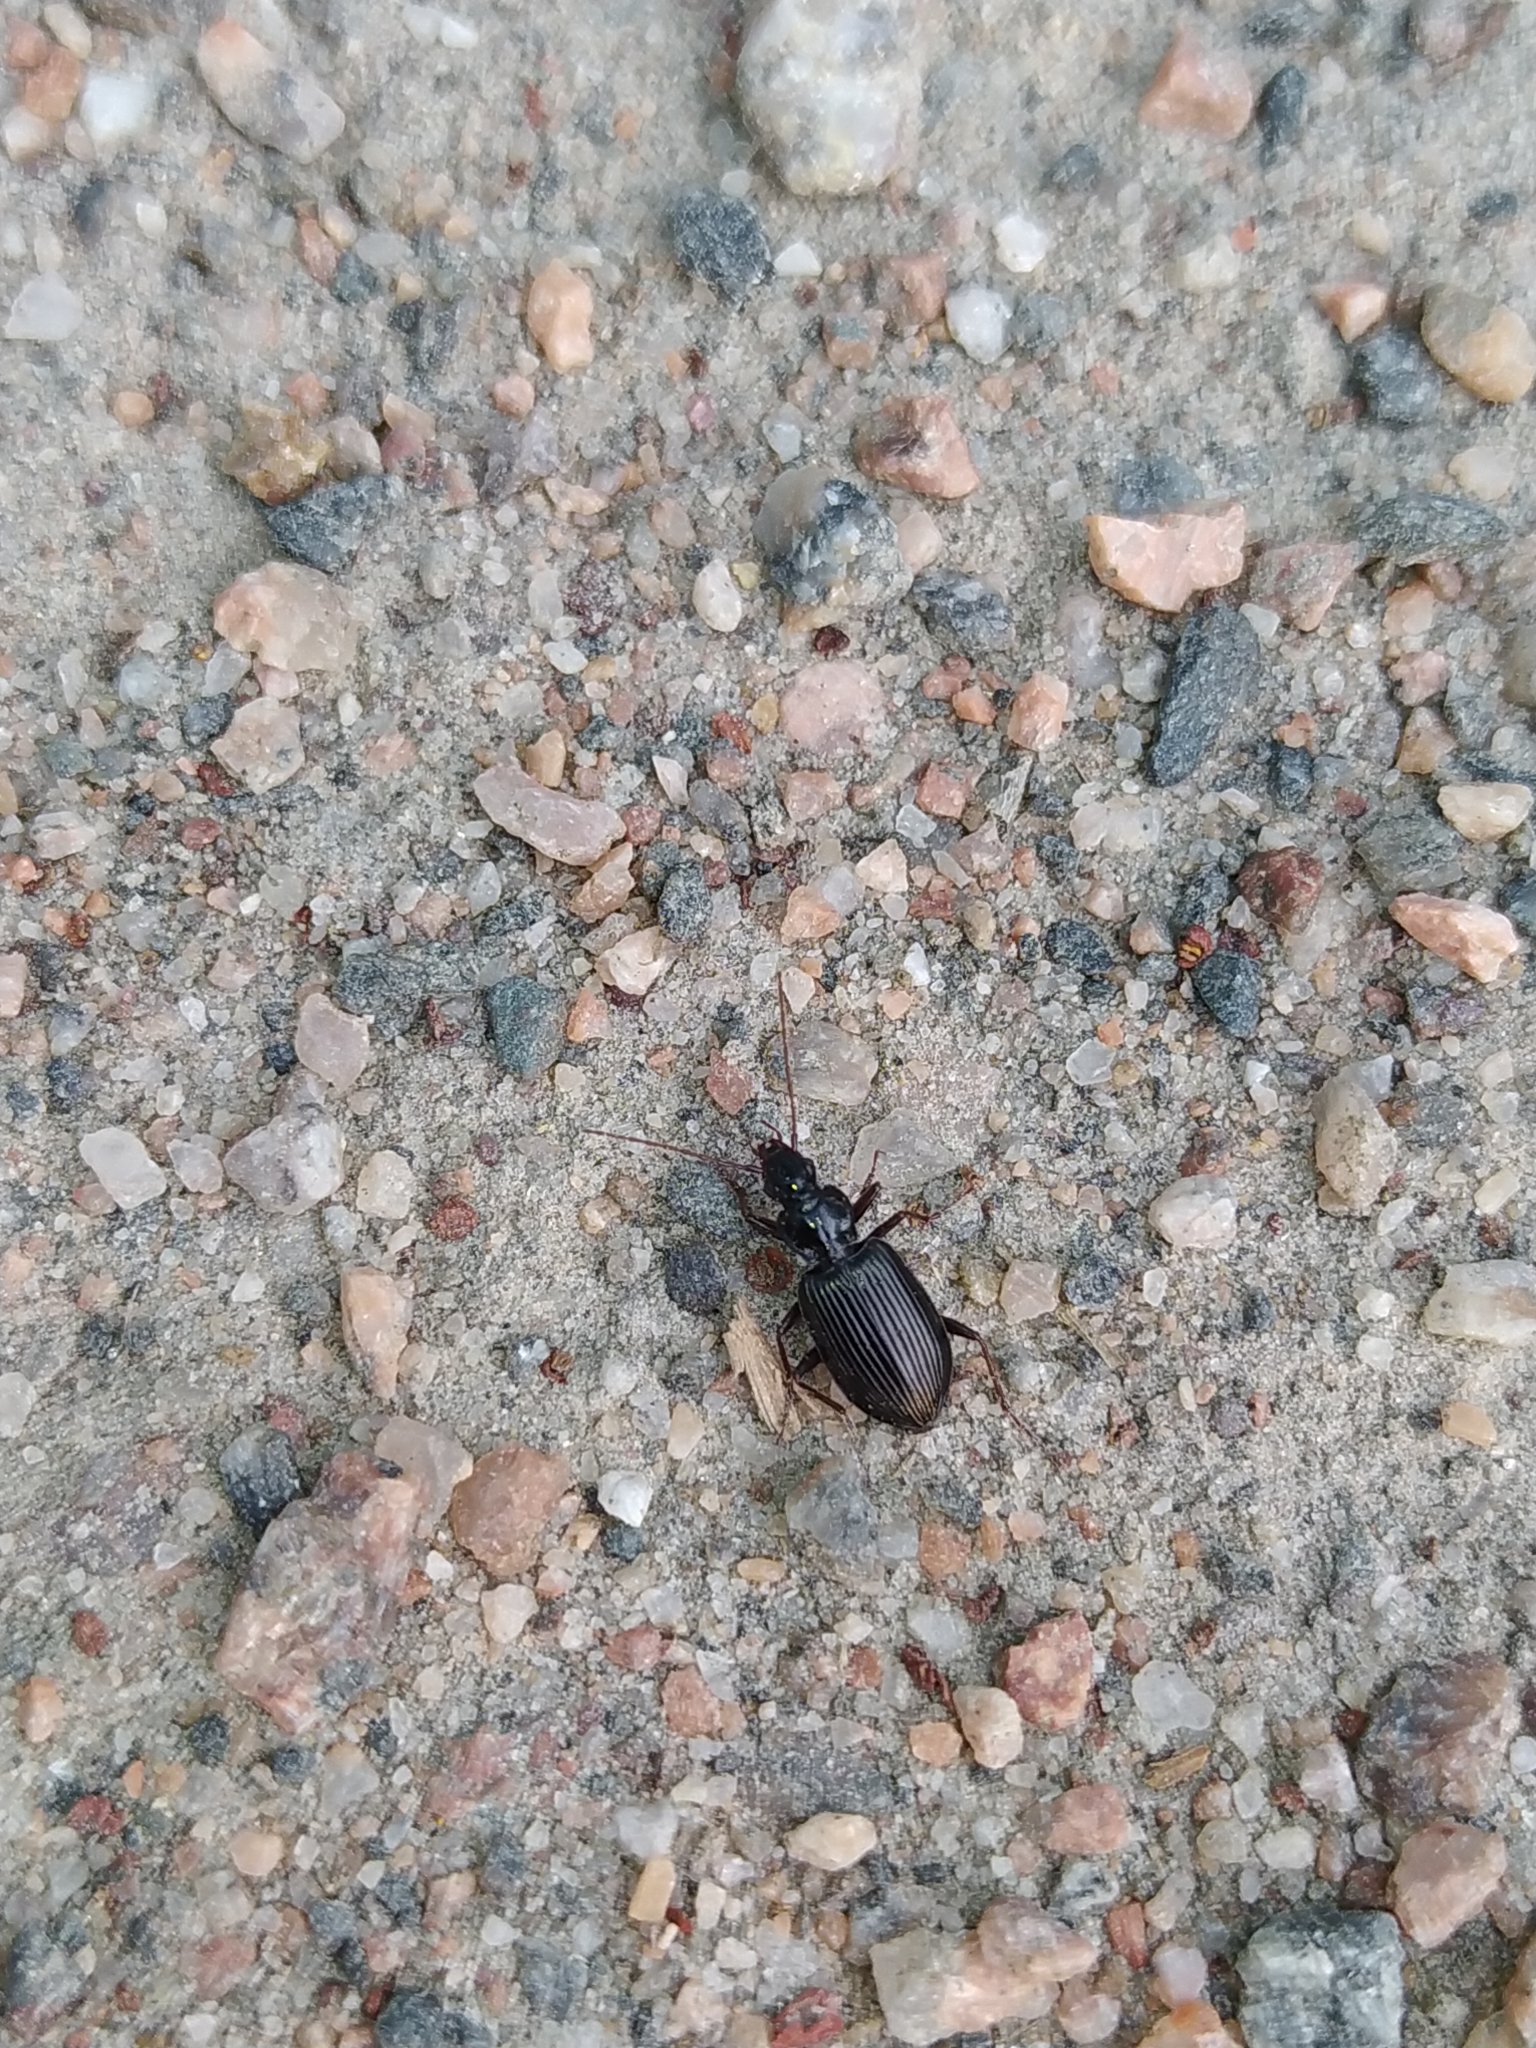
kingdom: Animalia
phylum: Arthropoda
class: Insecta
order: Coleoptera
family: Carabidae
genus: Platynus
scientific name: Platynus assimilis
